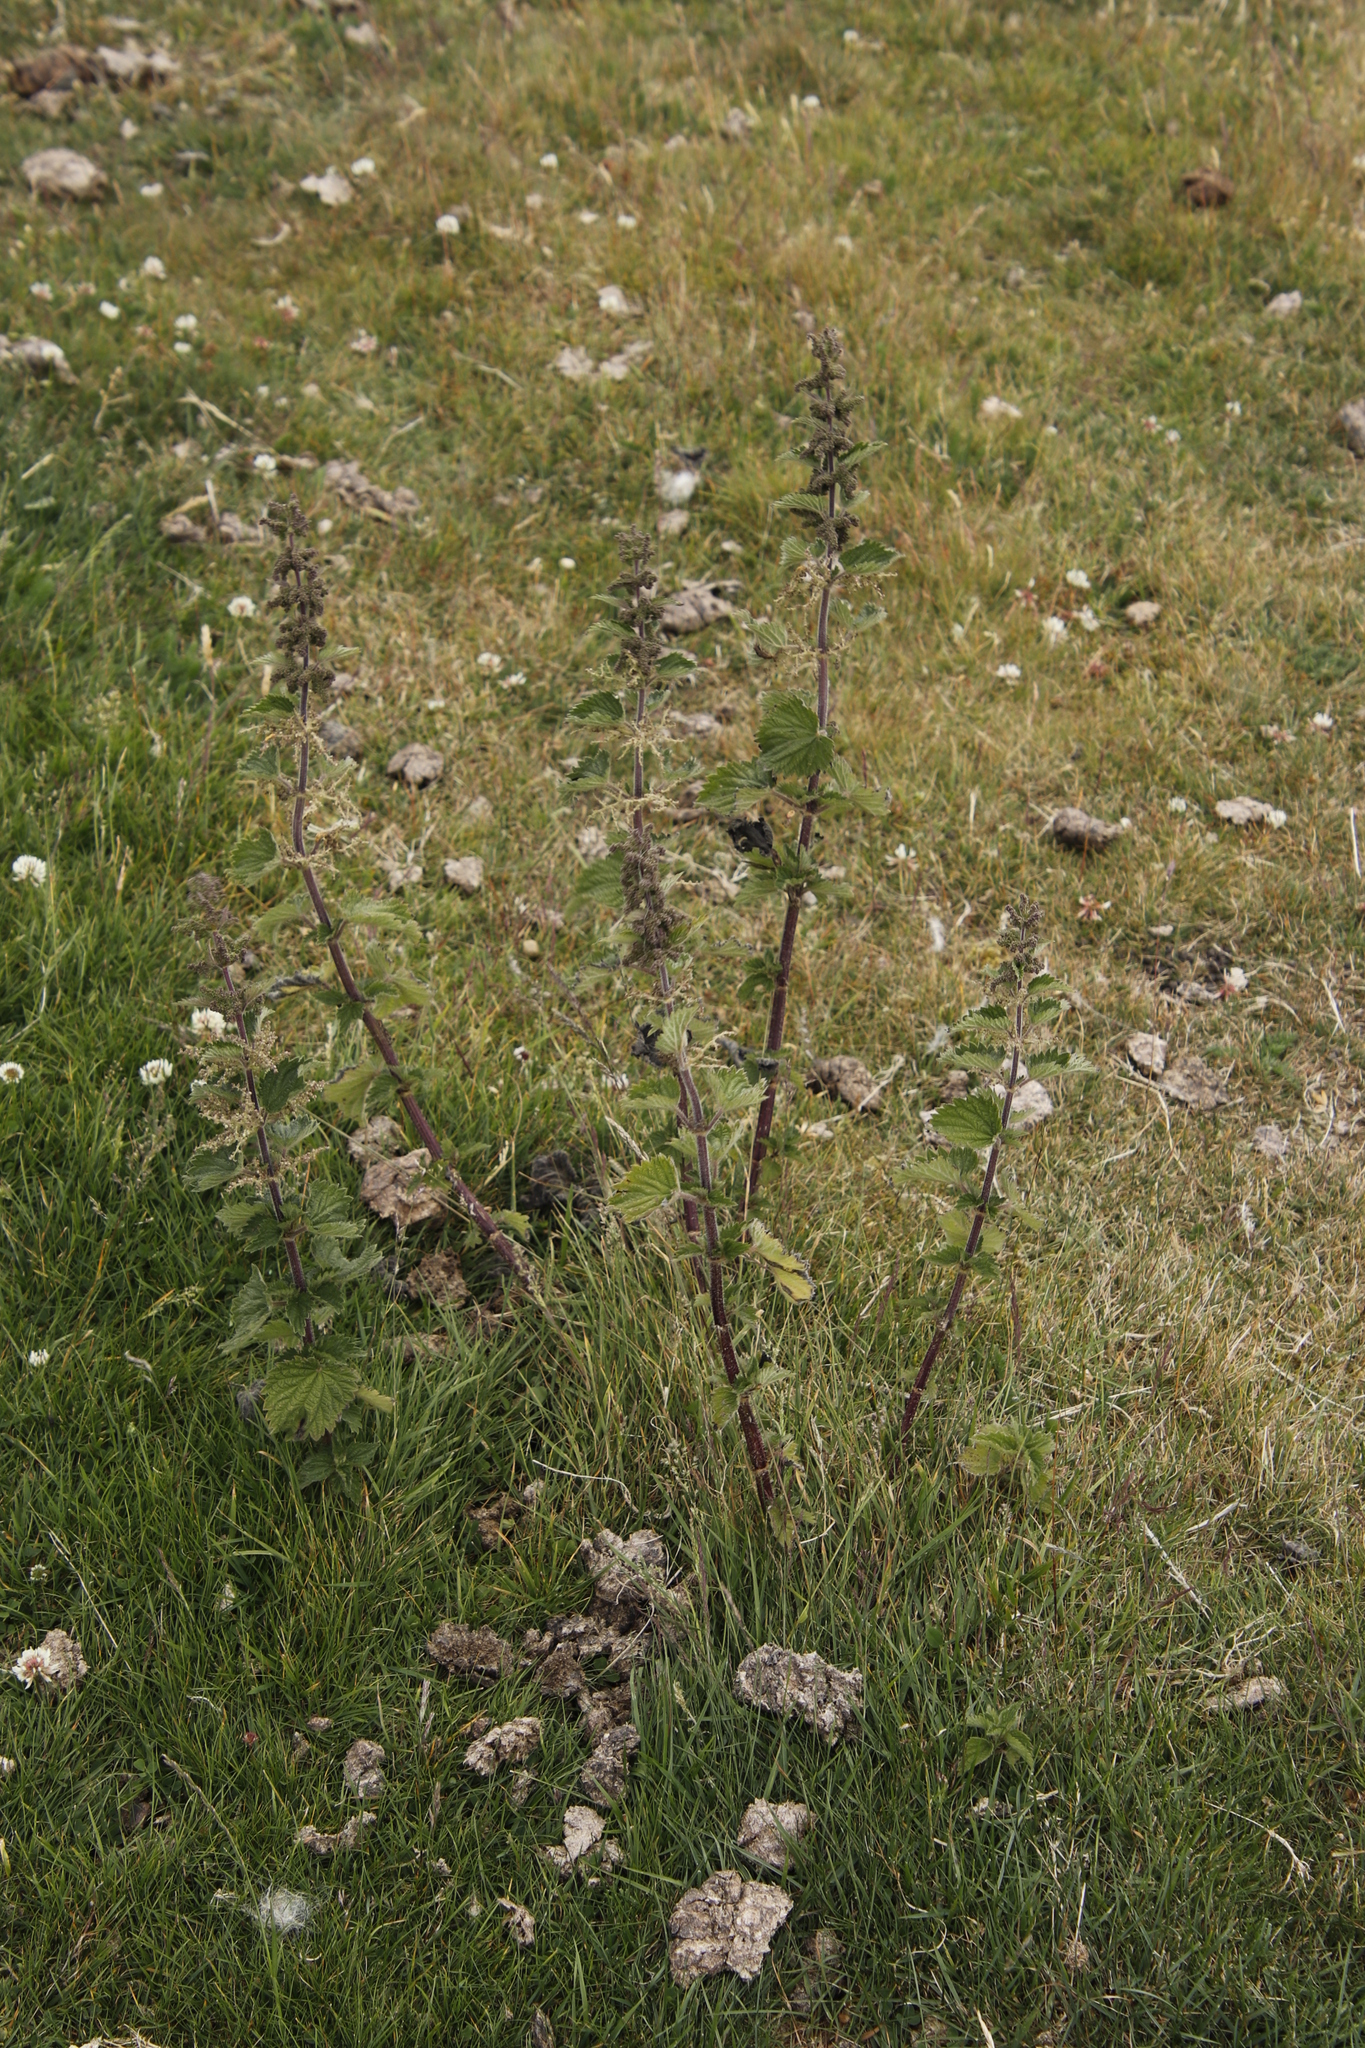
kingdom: Plantae
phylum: Tracheophyta
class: Magnoliopsida
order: Rosales
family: Urticaceae
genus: Urtica
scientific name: Urtica dioica
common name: Common nettle
